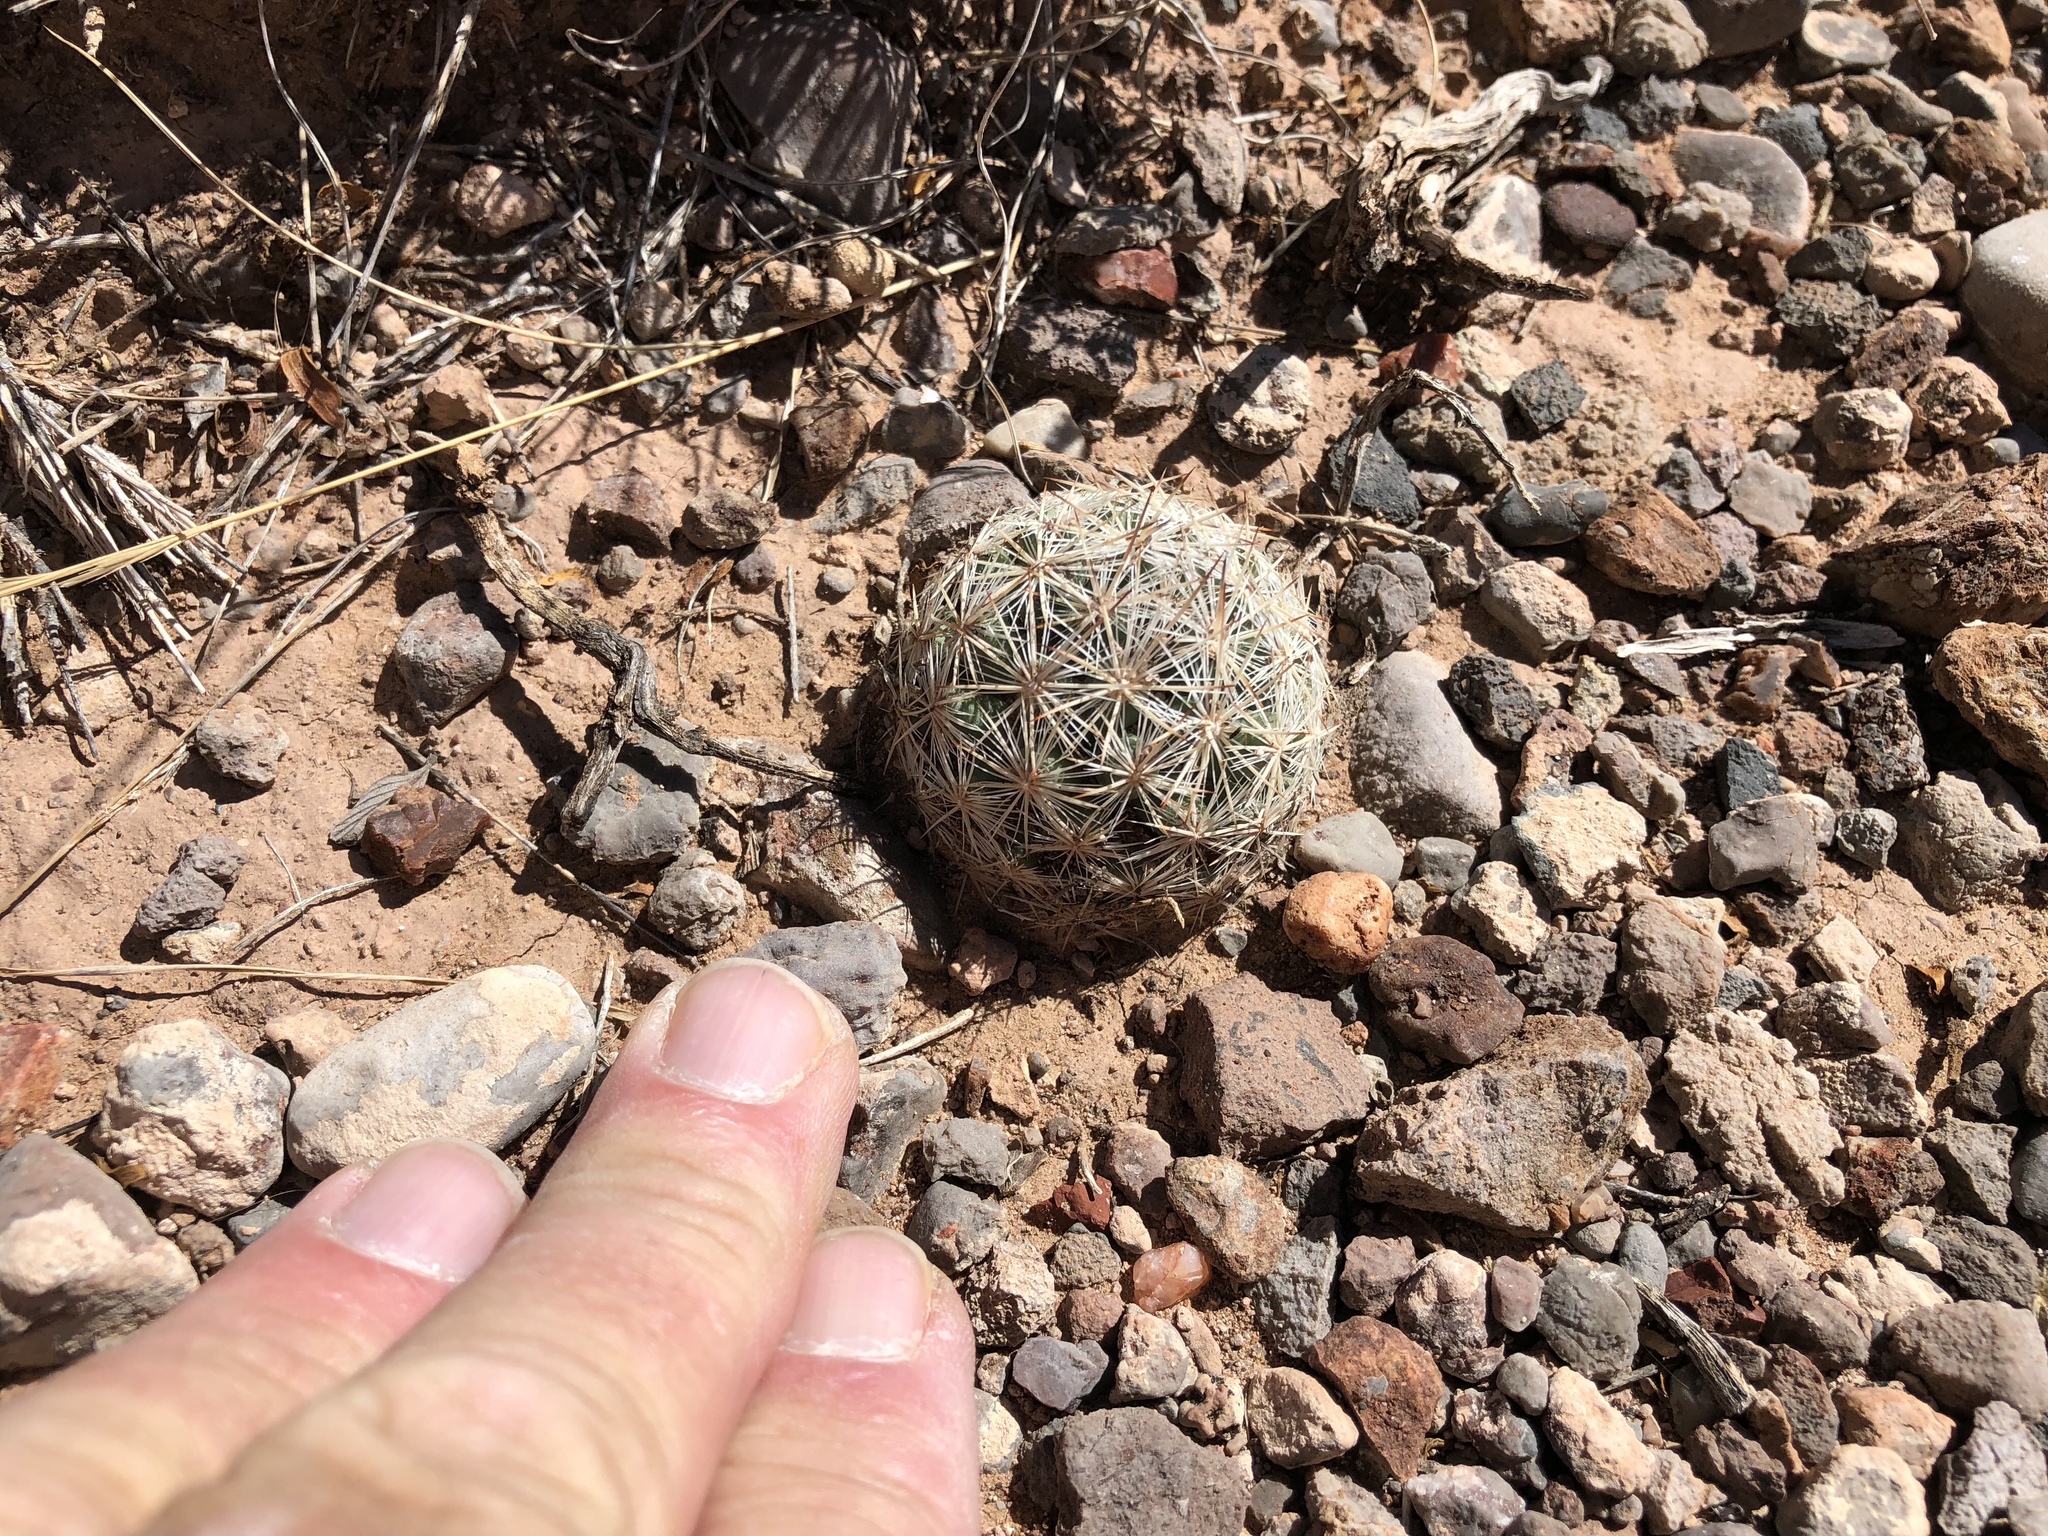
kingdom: Plantae
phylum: Tracheophyta
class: Magnoliopsida
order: Caryophyllales
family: Cactaceae
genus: Pelecyphora
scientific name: Pelecyphora vivipara
